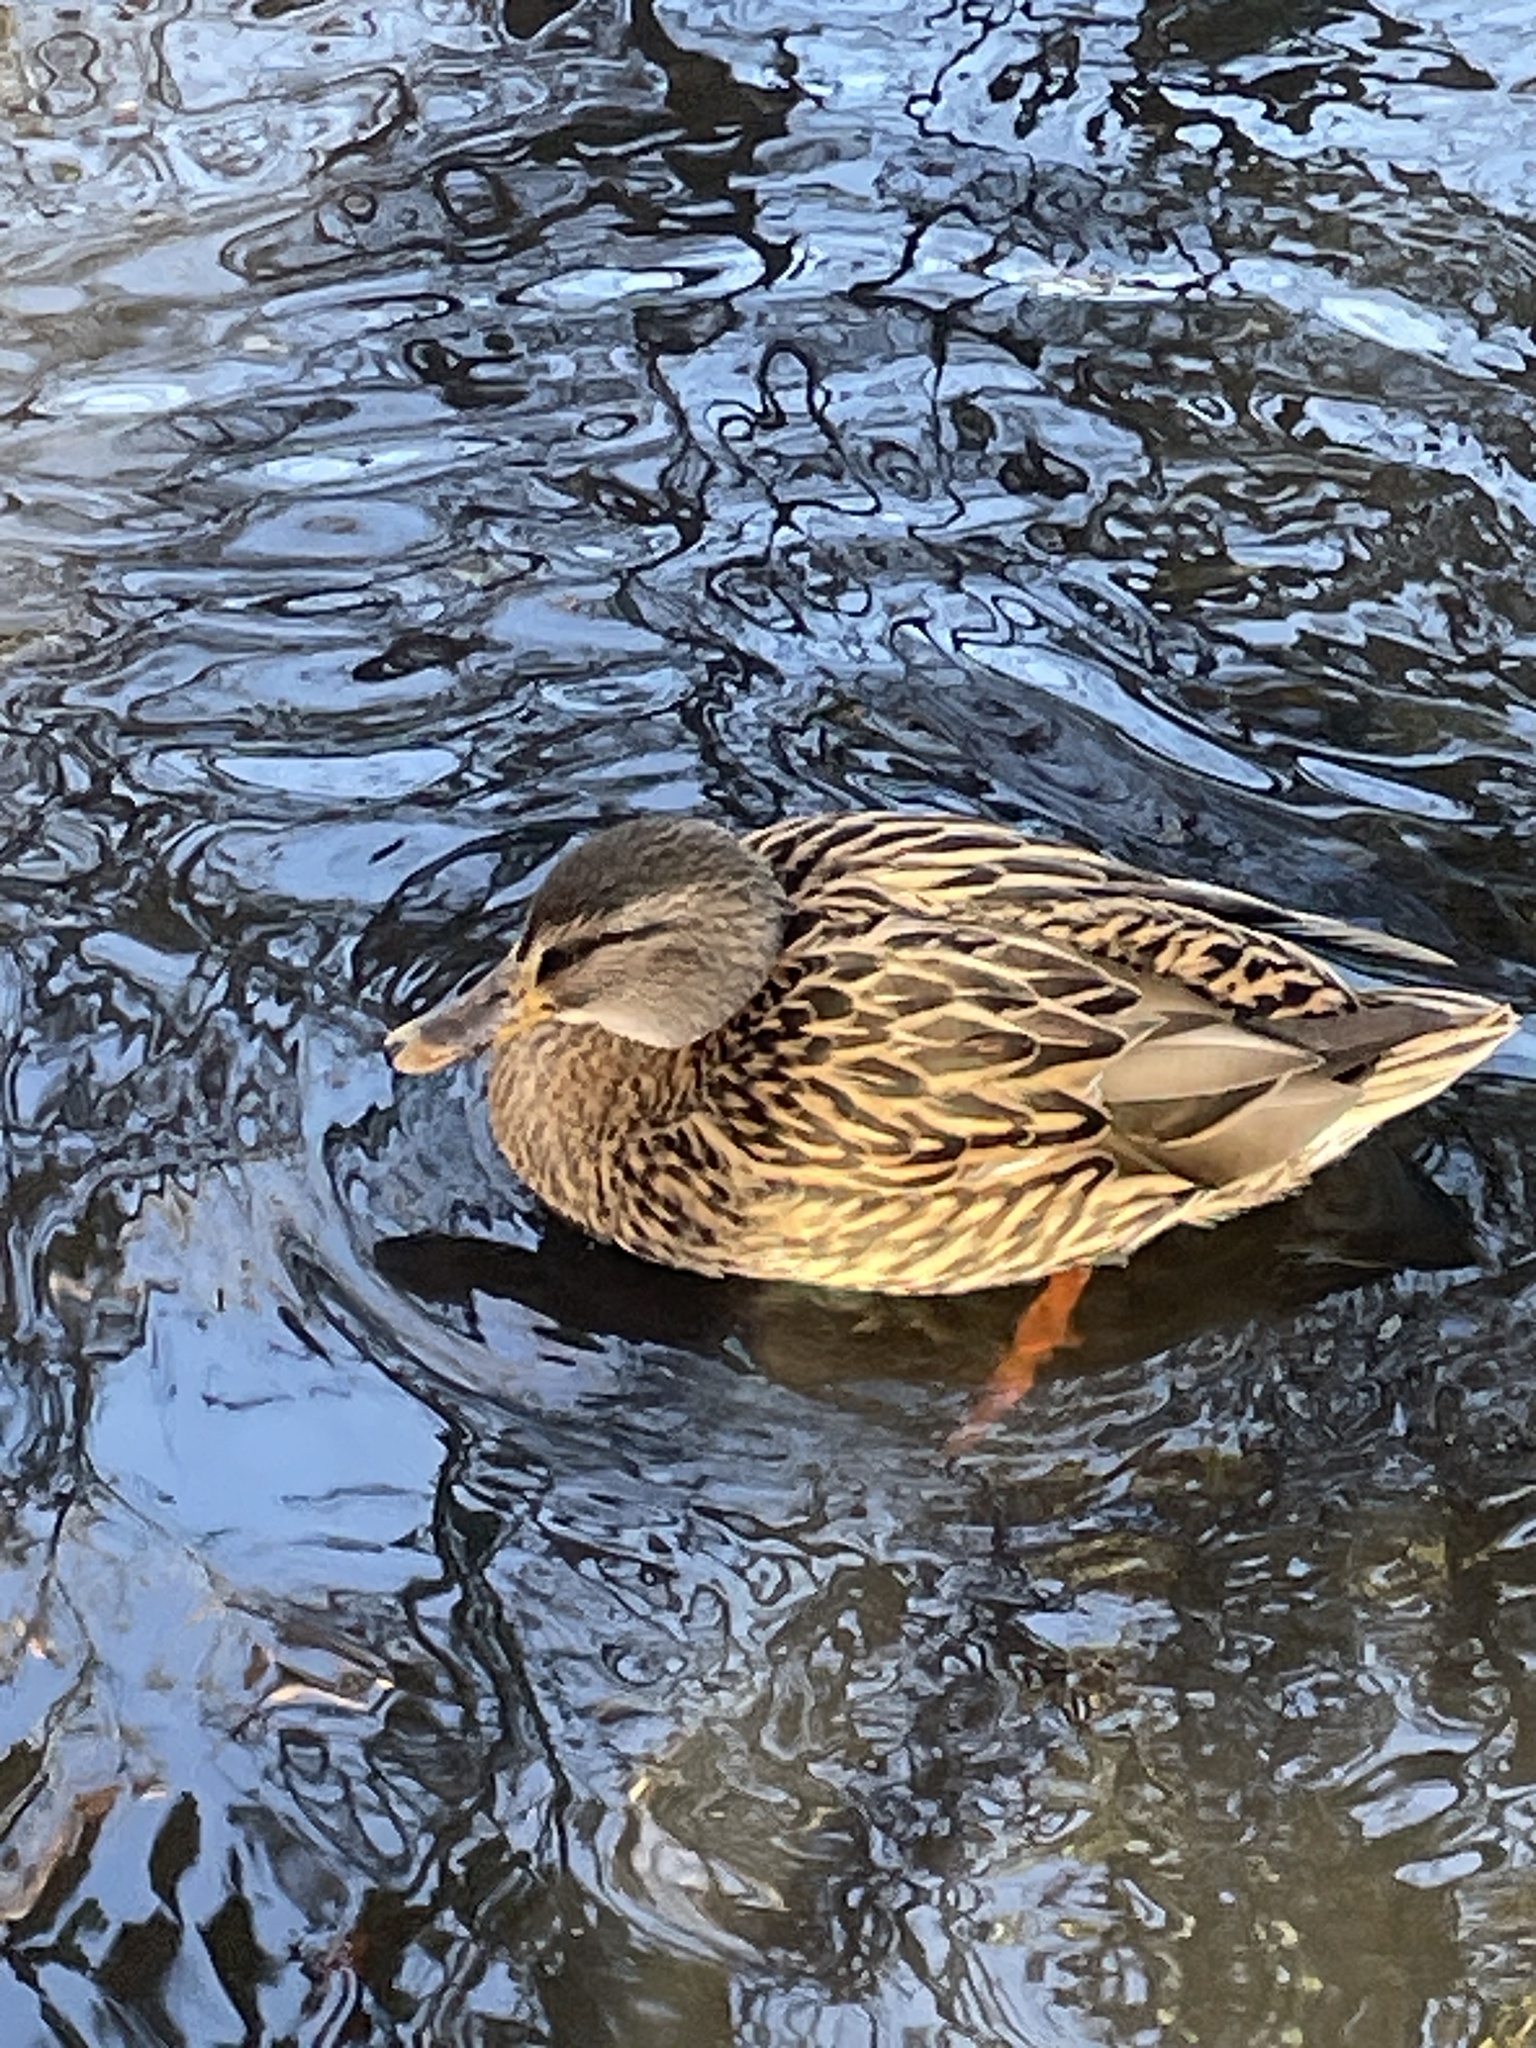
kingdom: Animalia
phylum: Chordata
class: Aves
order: Anseriformes
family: Anatidae
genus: Anas
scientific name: Anas platyrhynchos
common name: Mallard
